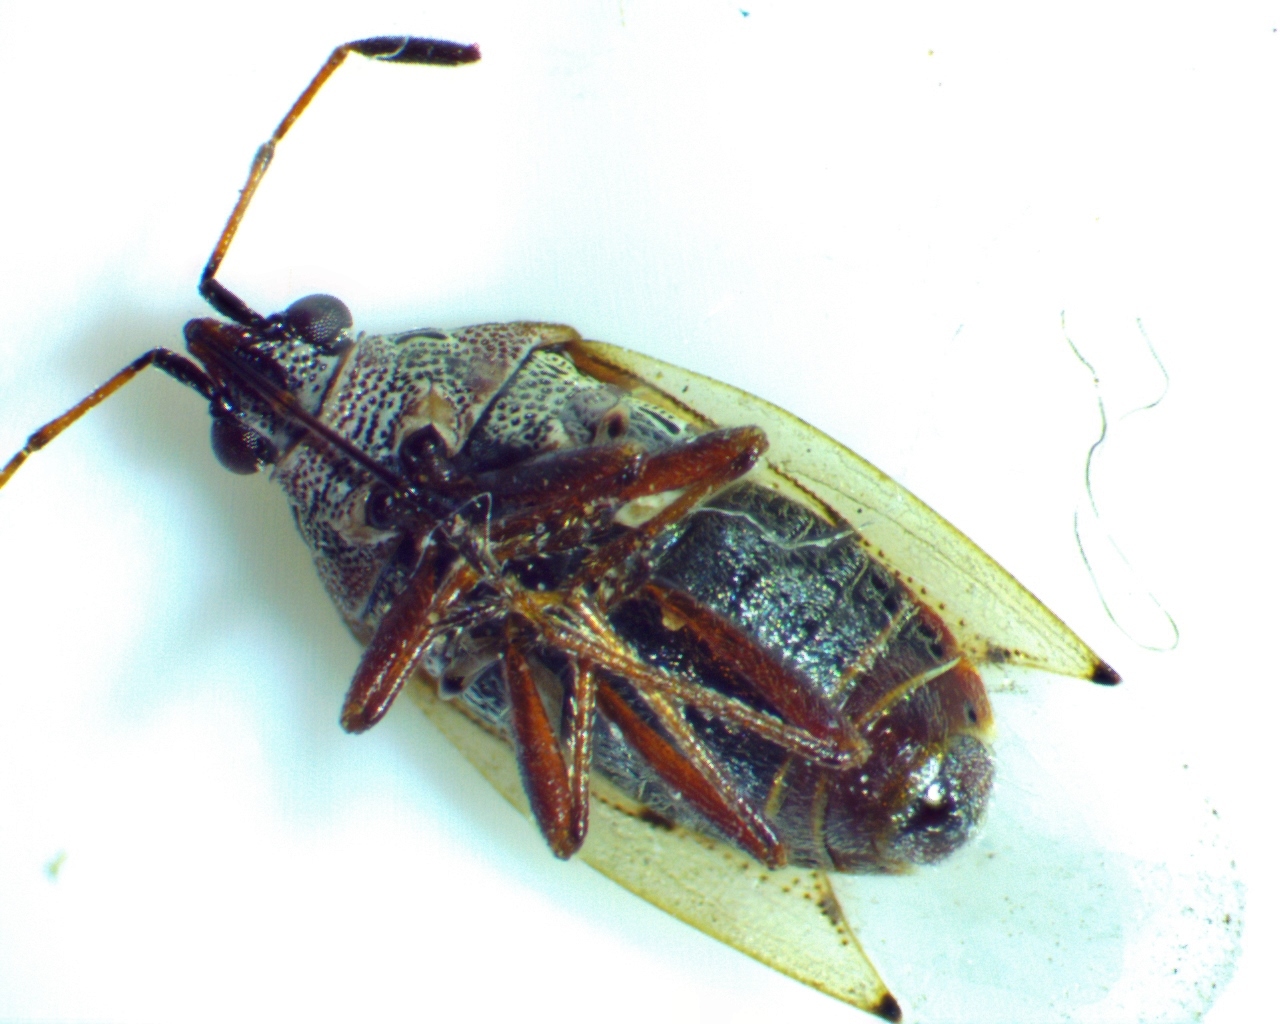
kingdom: Animalia
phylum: Arthropoda
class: Insecta
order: Hemiptera
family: Lygaeidae
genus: Kleidocerys
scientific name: Kleidocerys resedae
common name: Birch catkin bug
